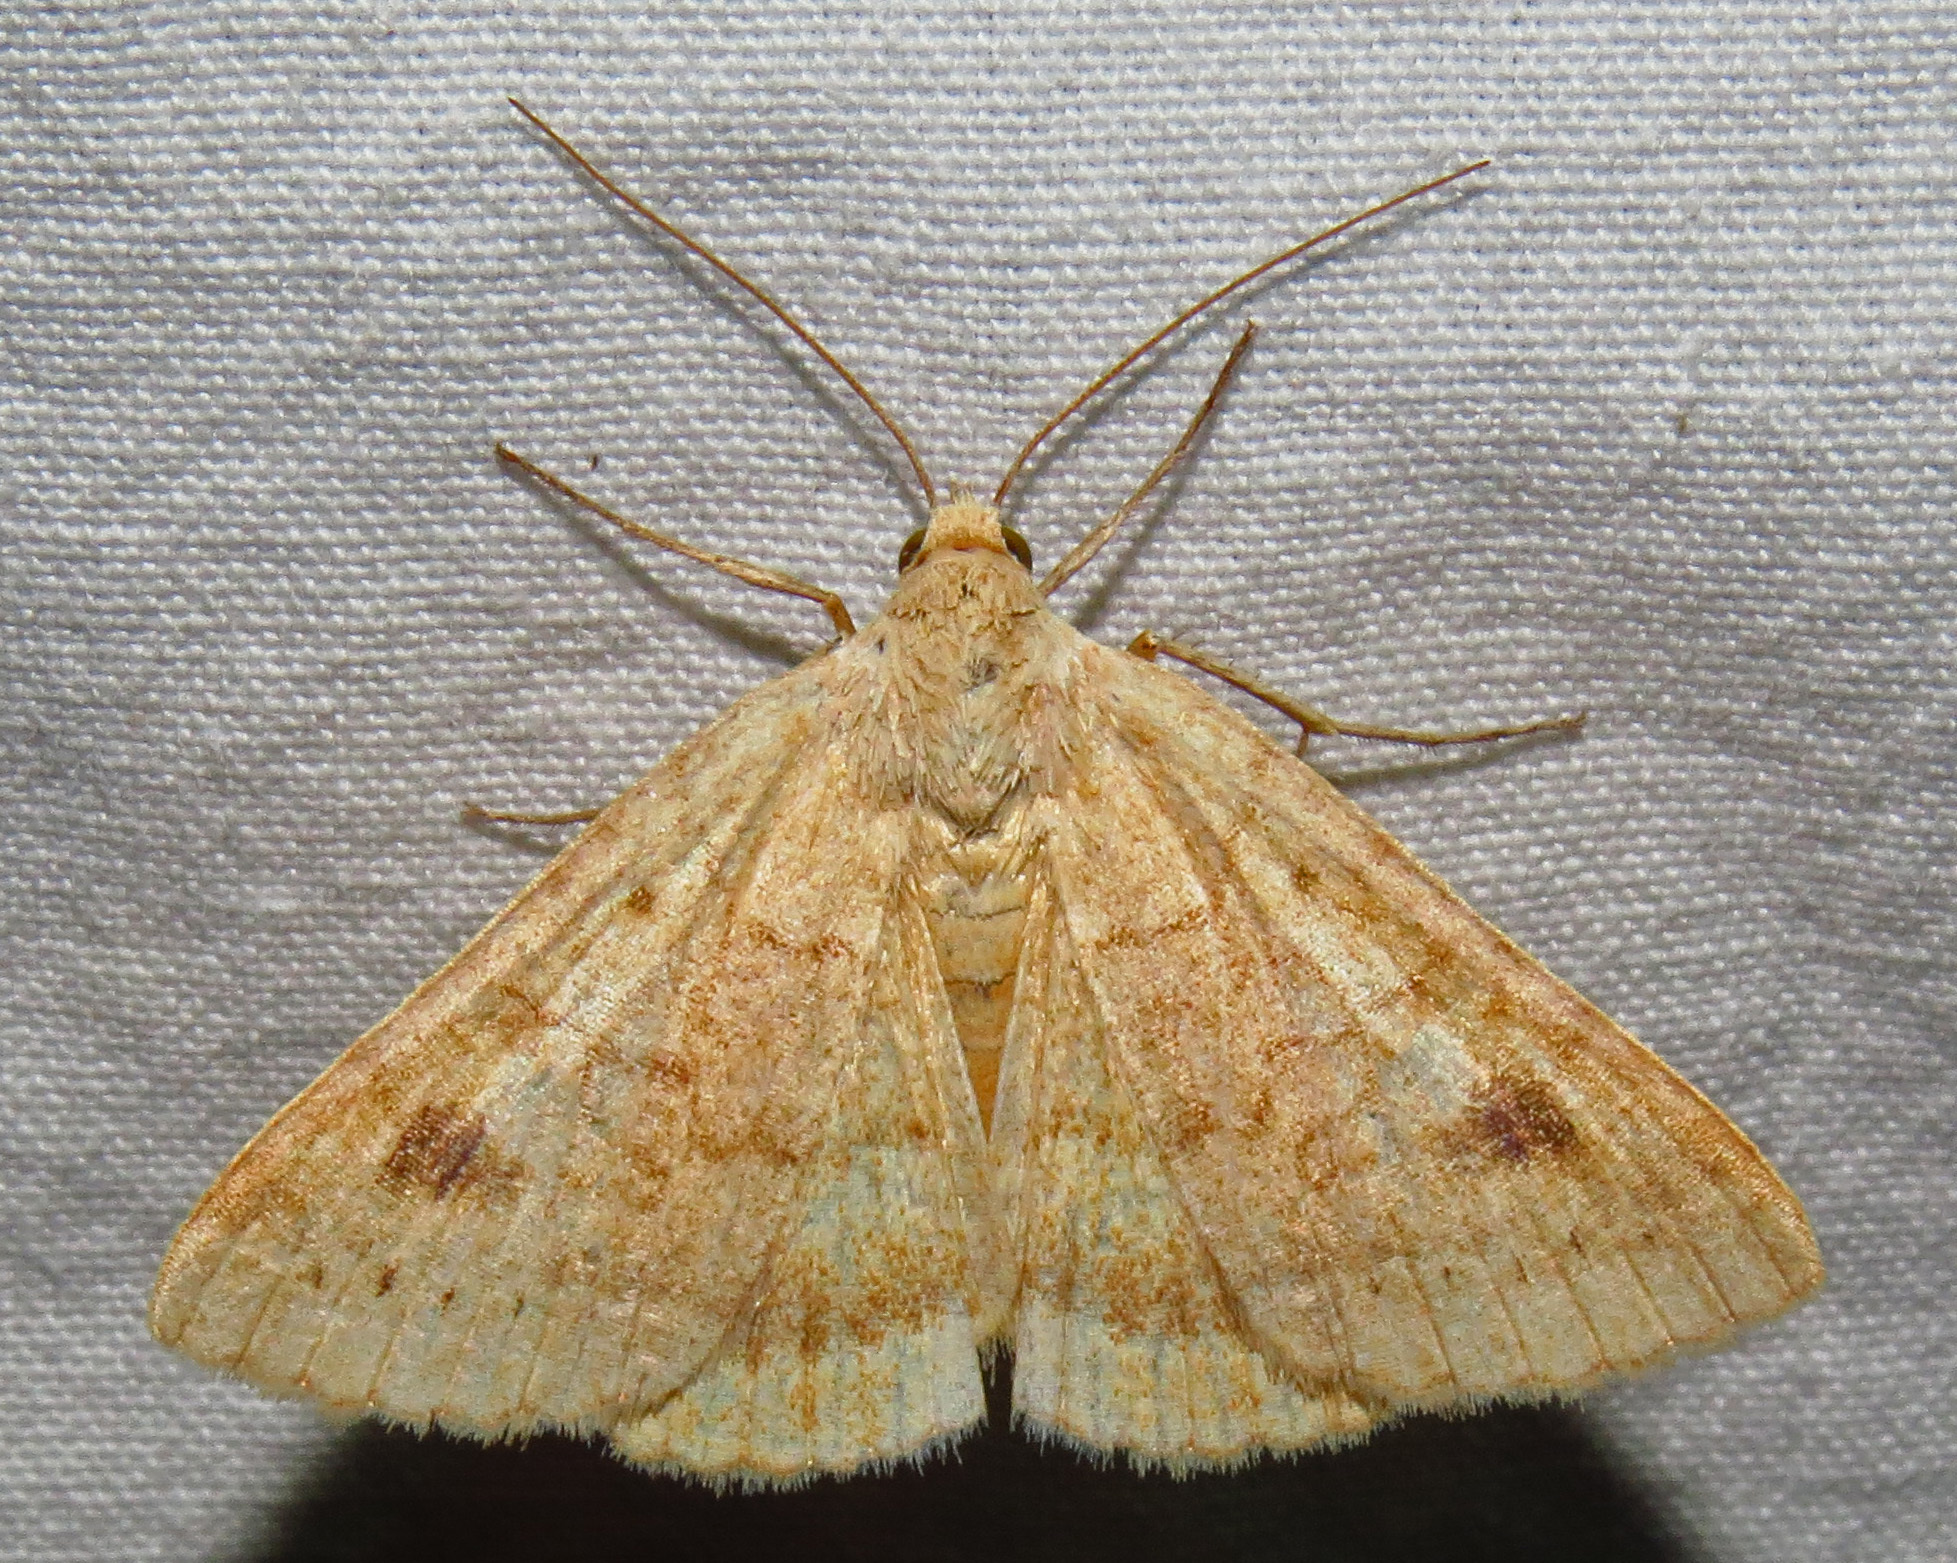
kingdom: Animalia
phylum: Arthropoda
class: Insecta
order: Lepidoptera
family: Erebidae
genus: Caenurgia
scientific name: Caenurgia chloropha
